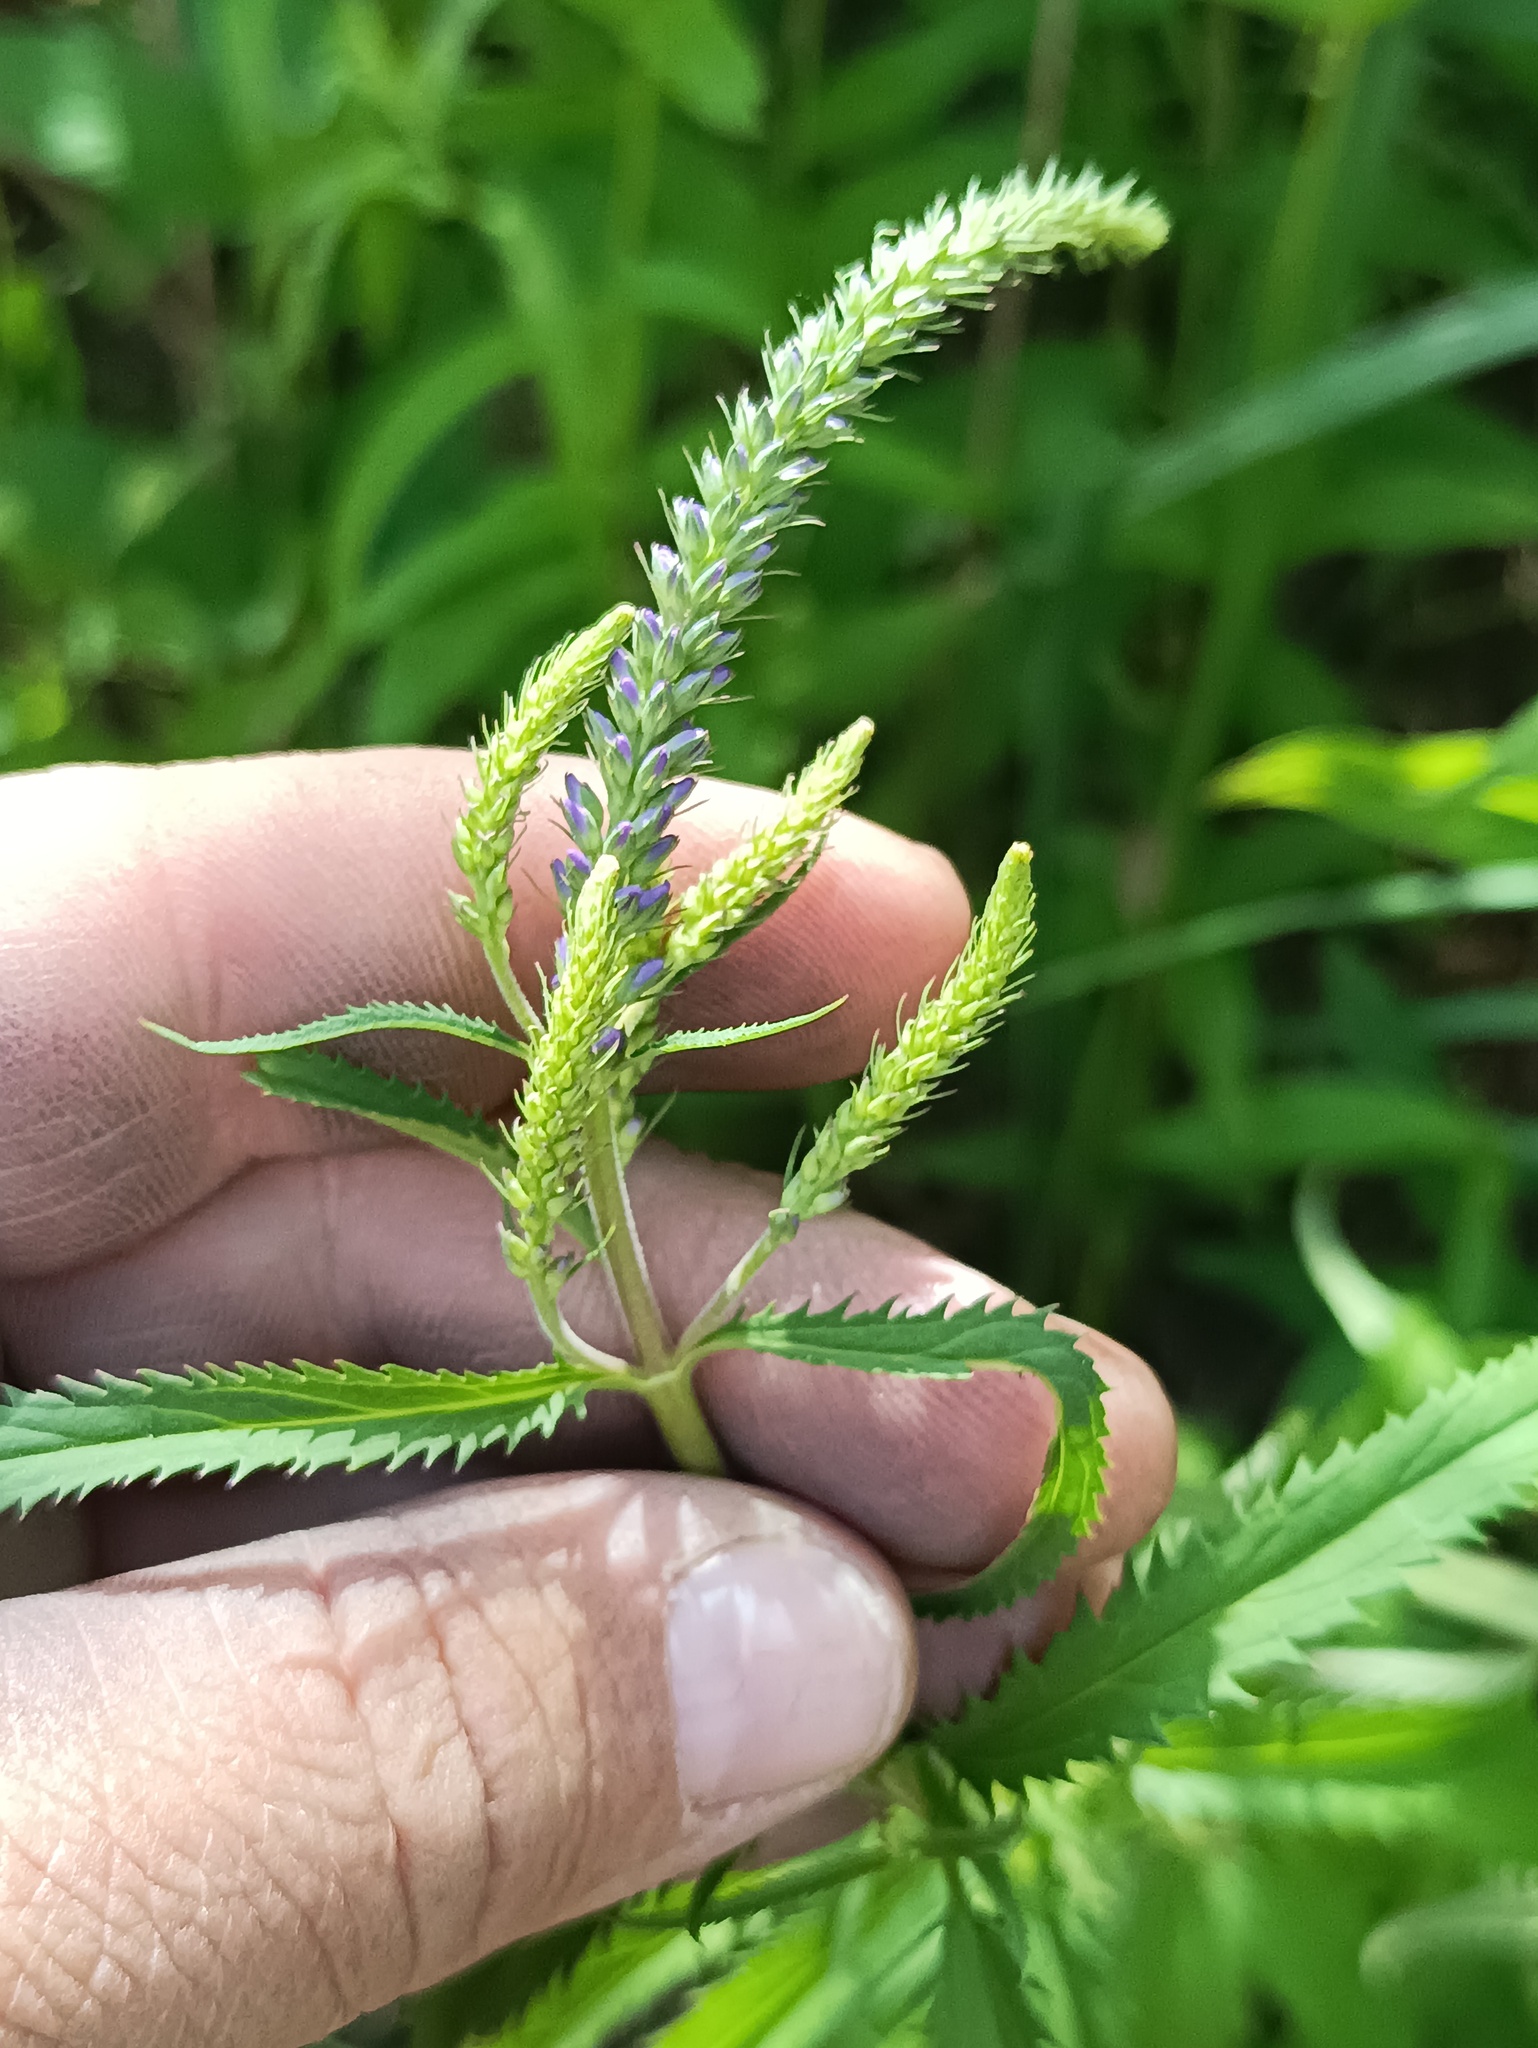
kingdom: Plantae
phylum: Tracheophyta
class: Magnoliopsida
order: Lamiales
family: Plantaginaceae
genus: Veronica
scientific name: Veronica longifolia
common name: Garden speedwell
